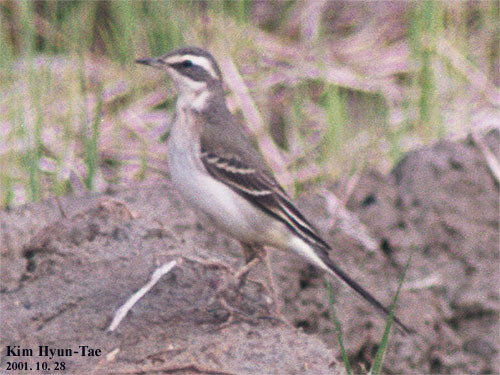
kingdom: Animalia
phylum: Chordata
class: Aves
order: Passeriformes
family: Motacillidae
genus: Motacilla
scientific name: Motacilla tschutschensis
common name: Eastern yellow wagtail
